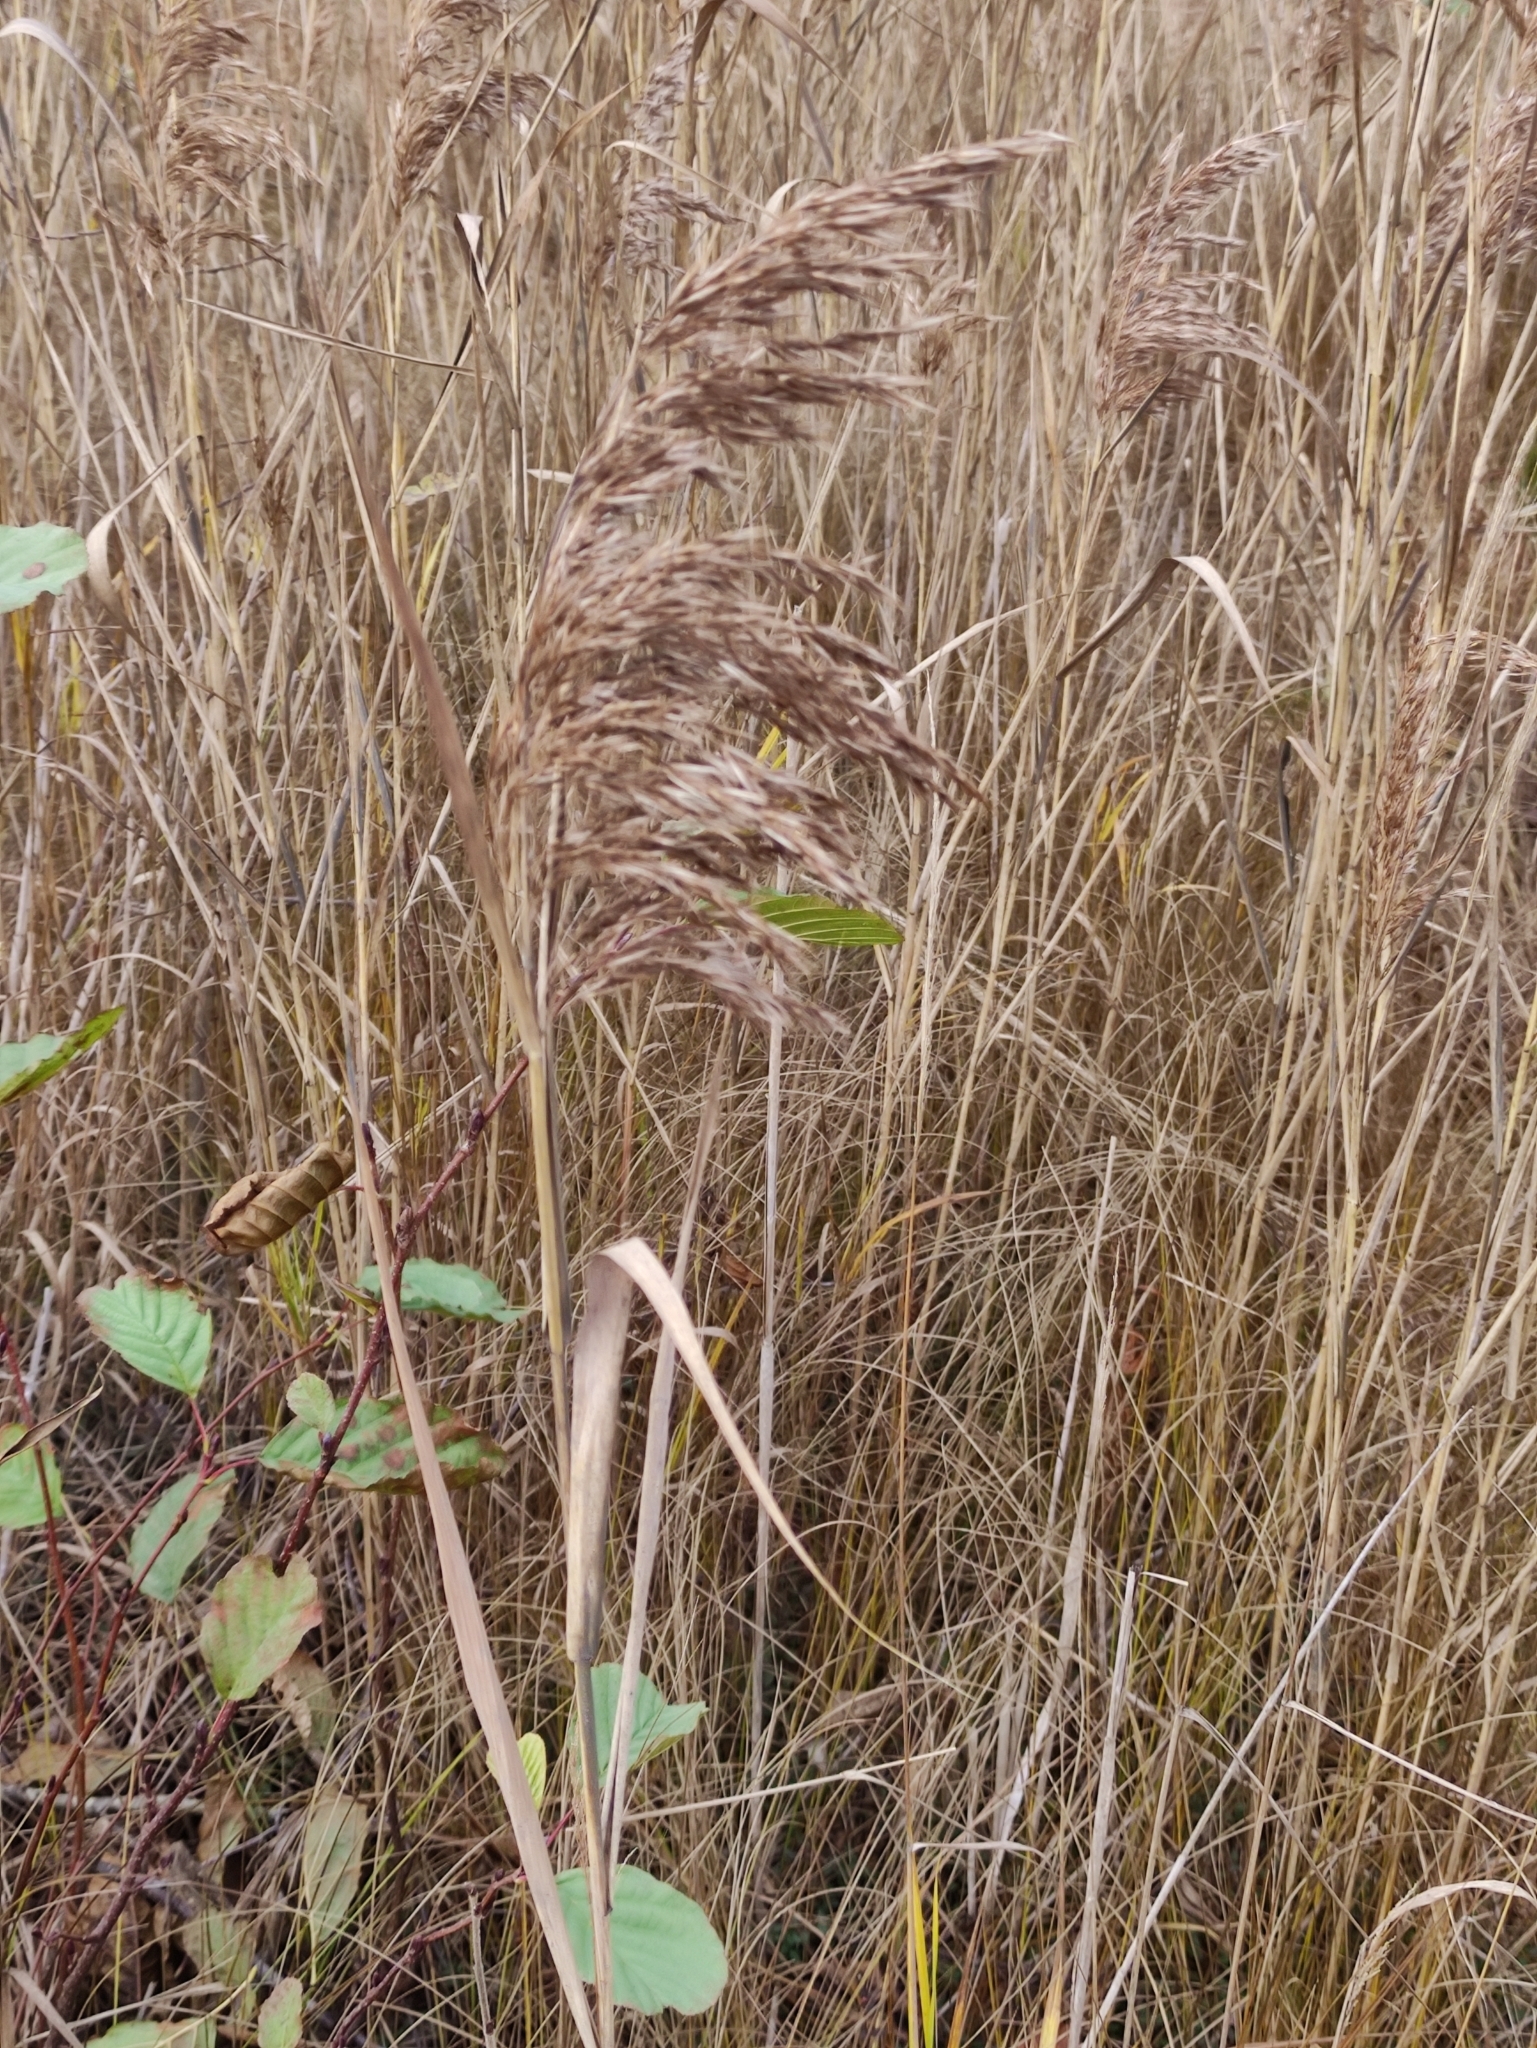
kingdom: Plantae
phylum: Tracheophyta
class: Liliopsida
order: Poales
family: Poaceae
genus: Phragmites
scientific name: Phragmites australis
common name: Common reed
